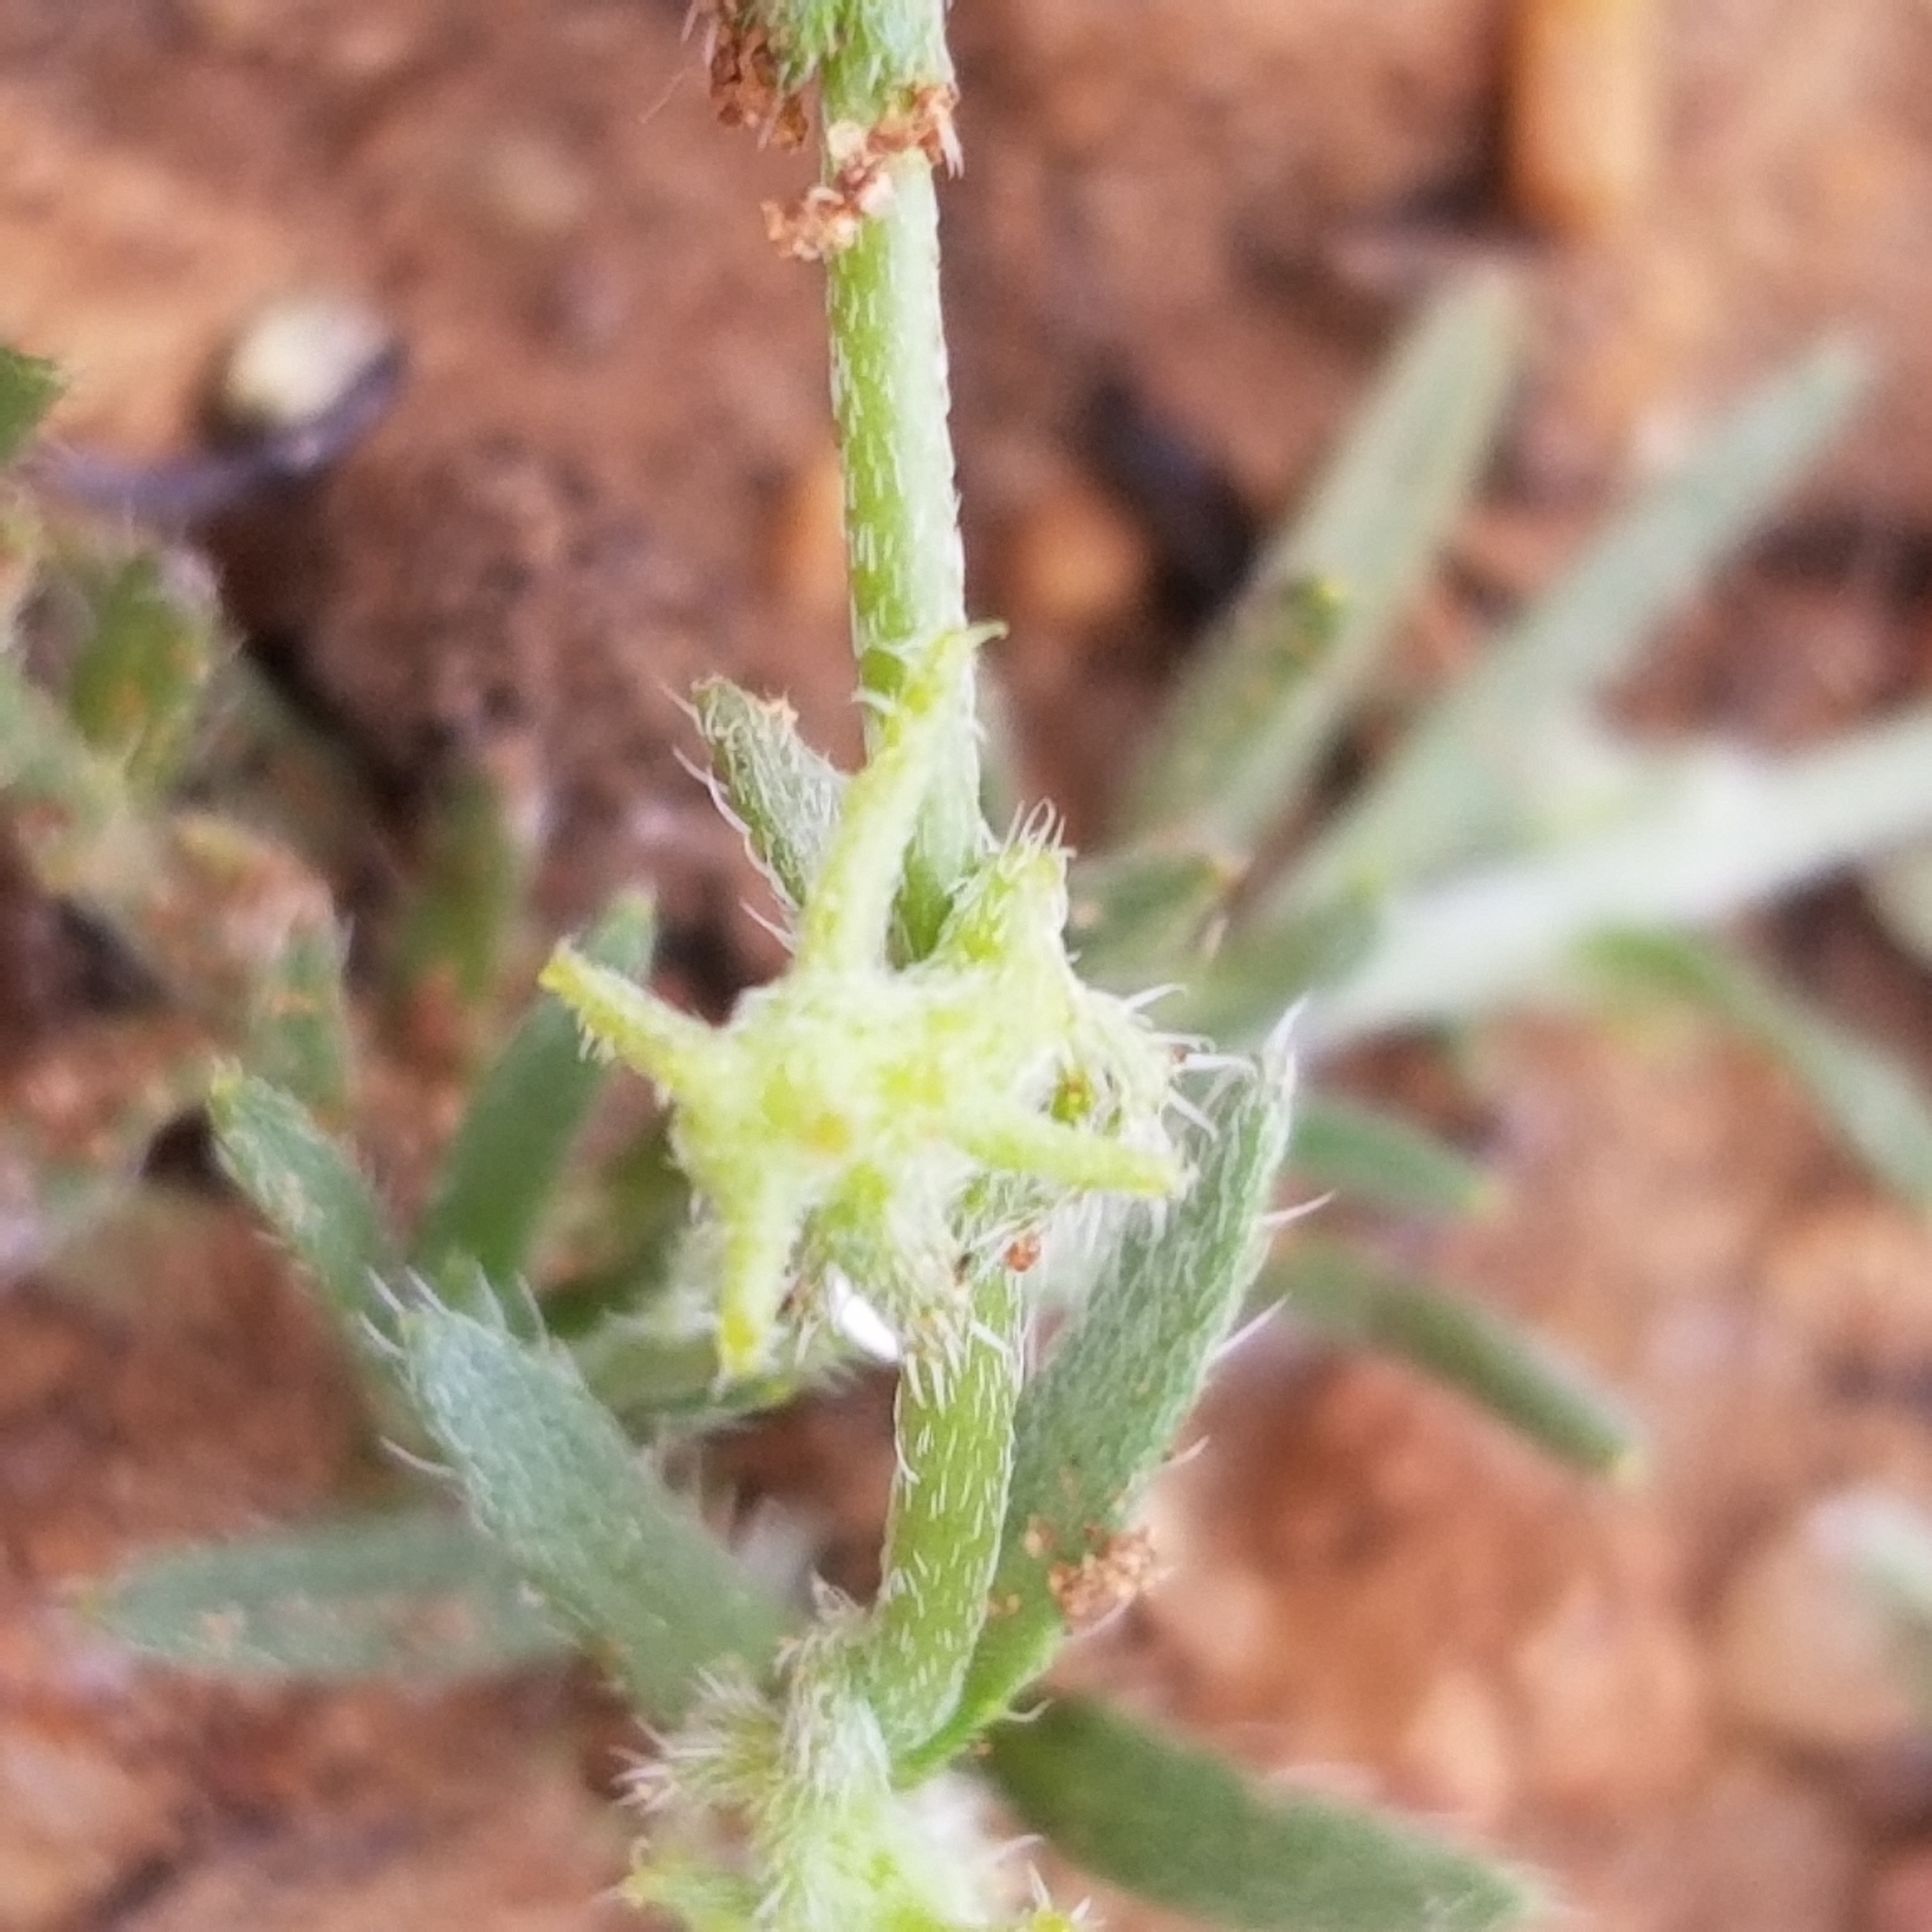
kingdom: Plantae
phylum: Tracheophyta
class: Magnoliopsida
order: Boraginales
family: Boraginaceae
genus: Harpagonella
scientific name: Harpagonella palmeri
